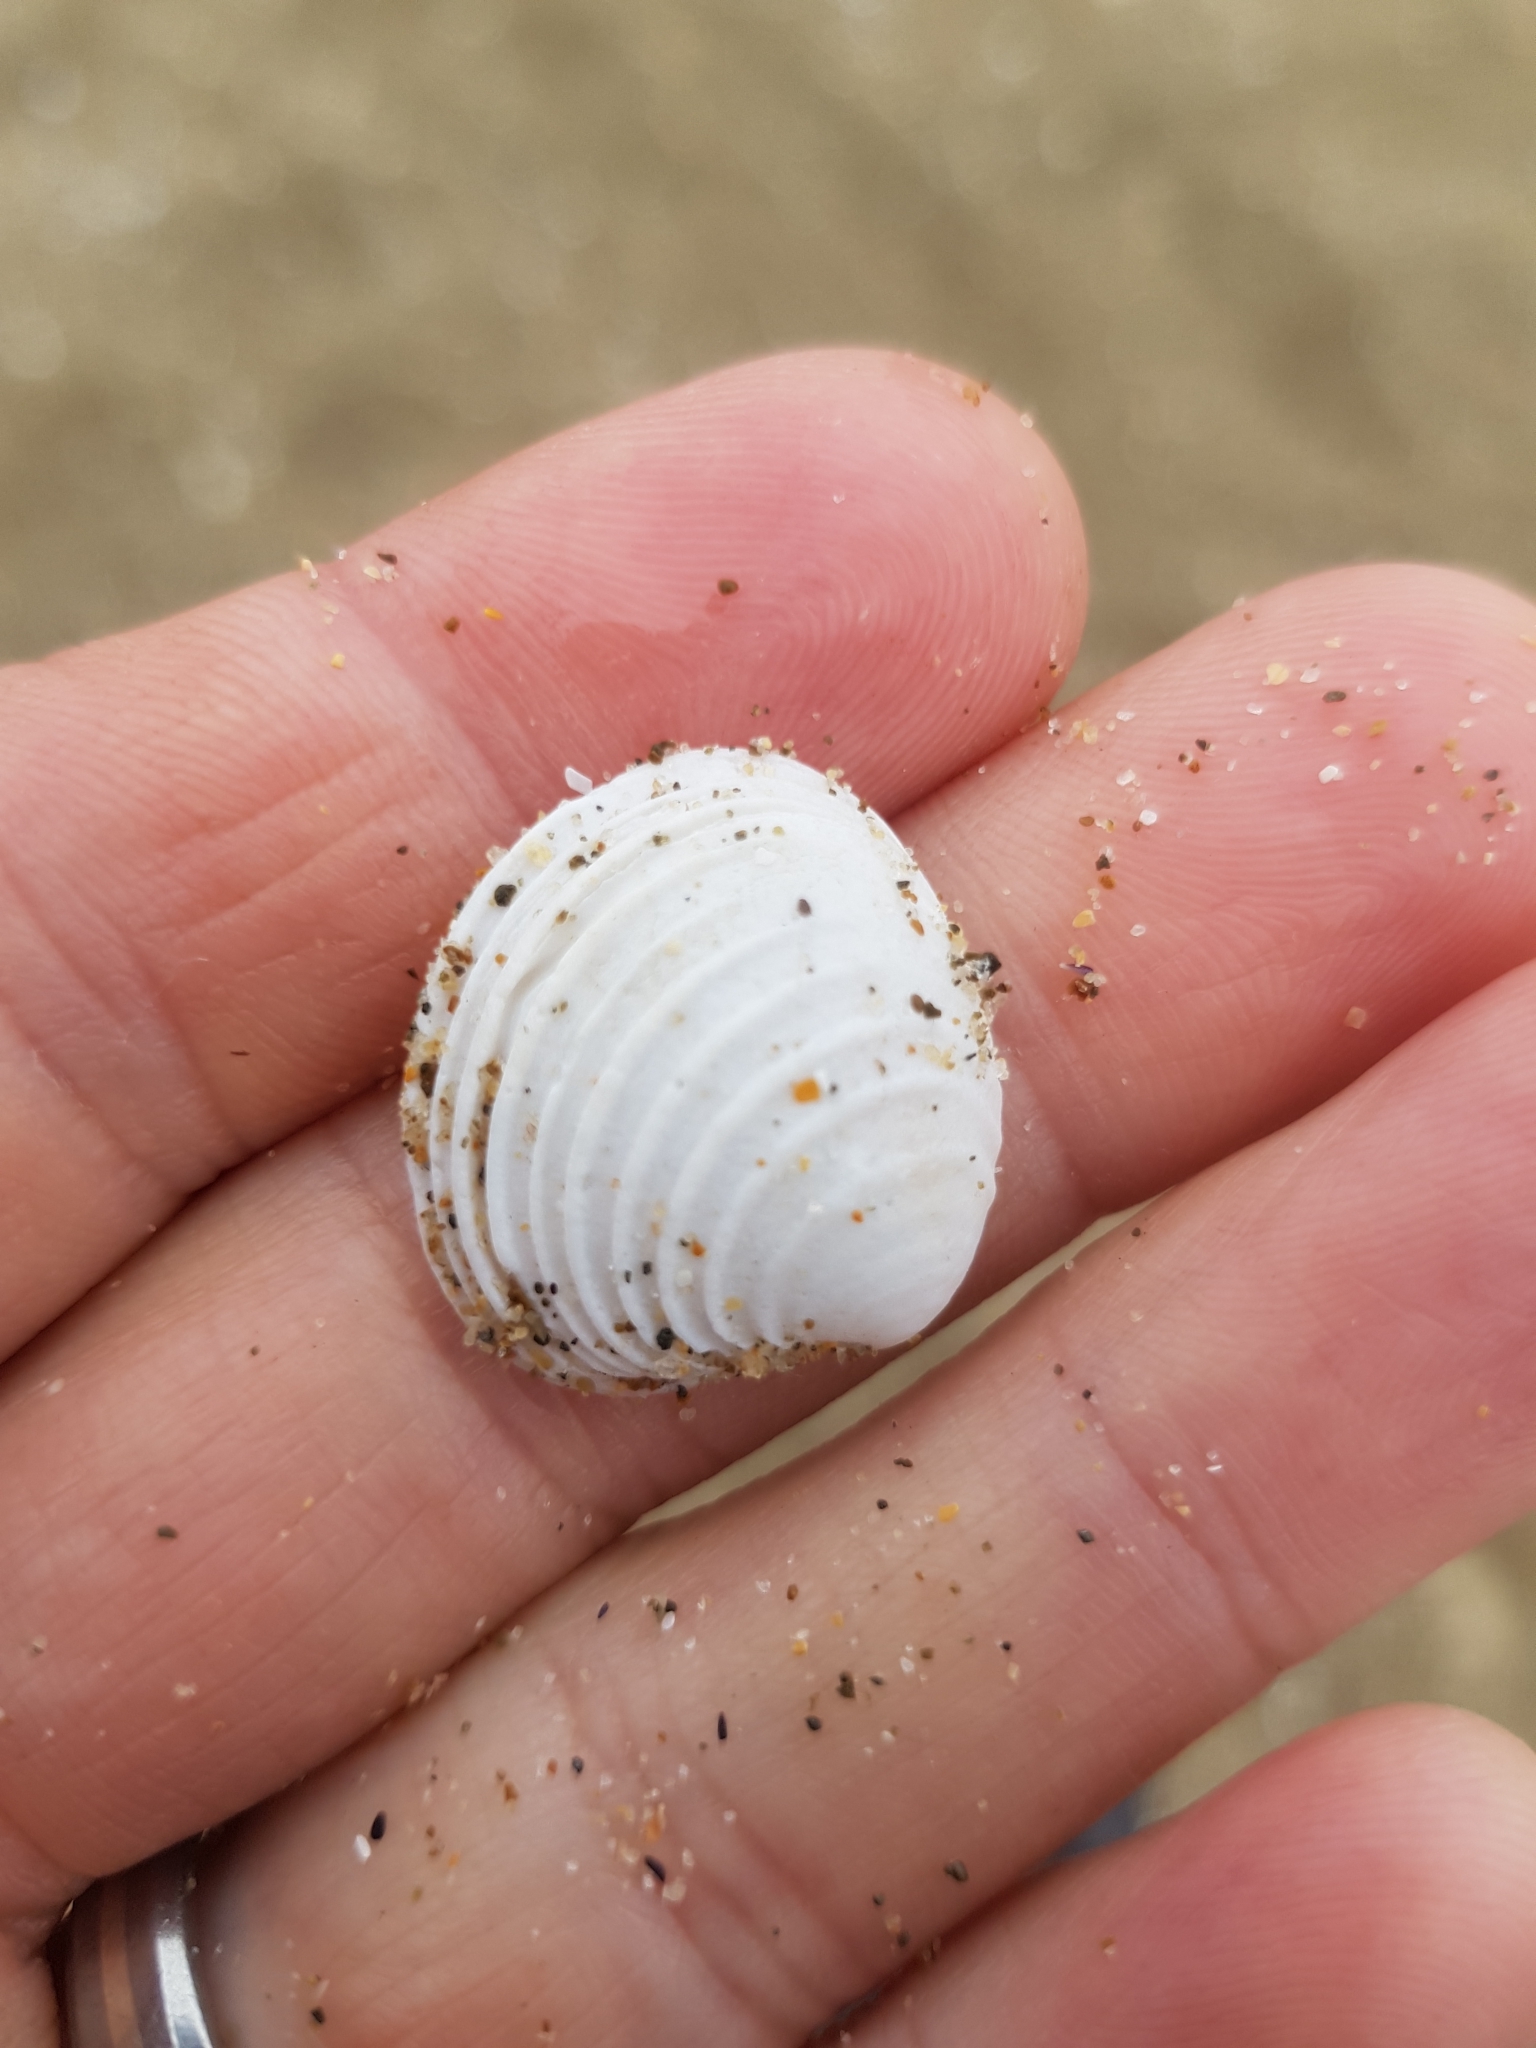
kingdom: Animalia
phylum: Mollusca
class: Bivalvia
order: Venerida
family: Veneridae
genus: Placamen
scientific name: Placamen placidum
